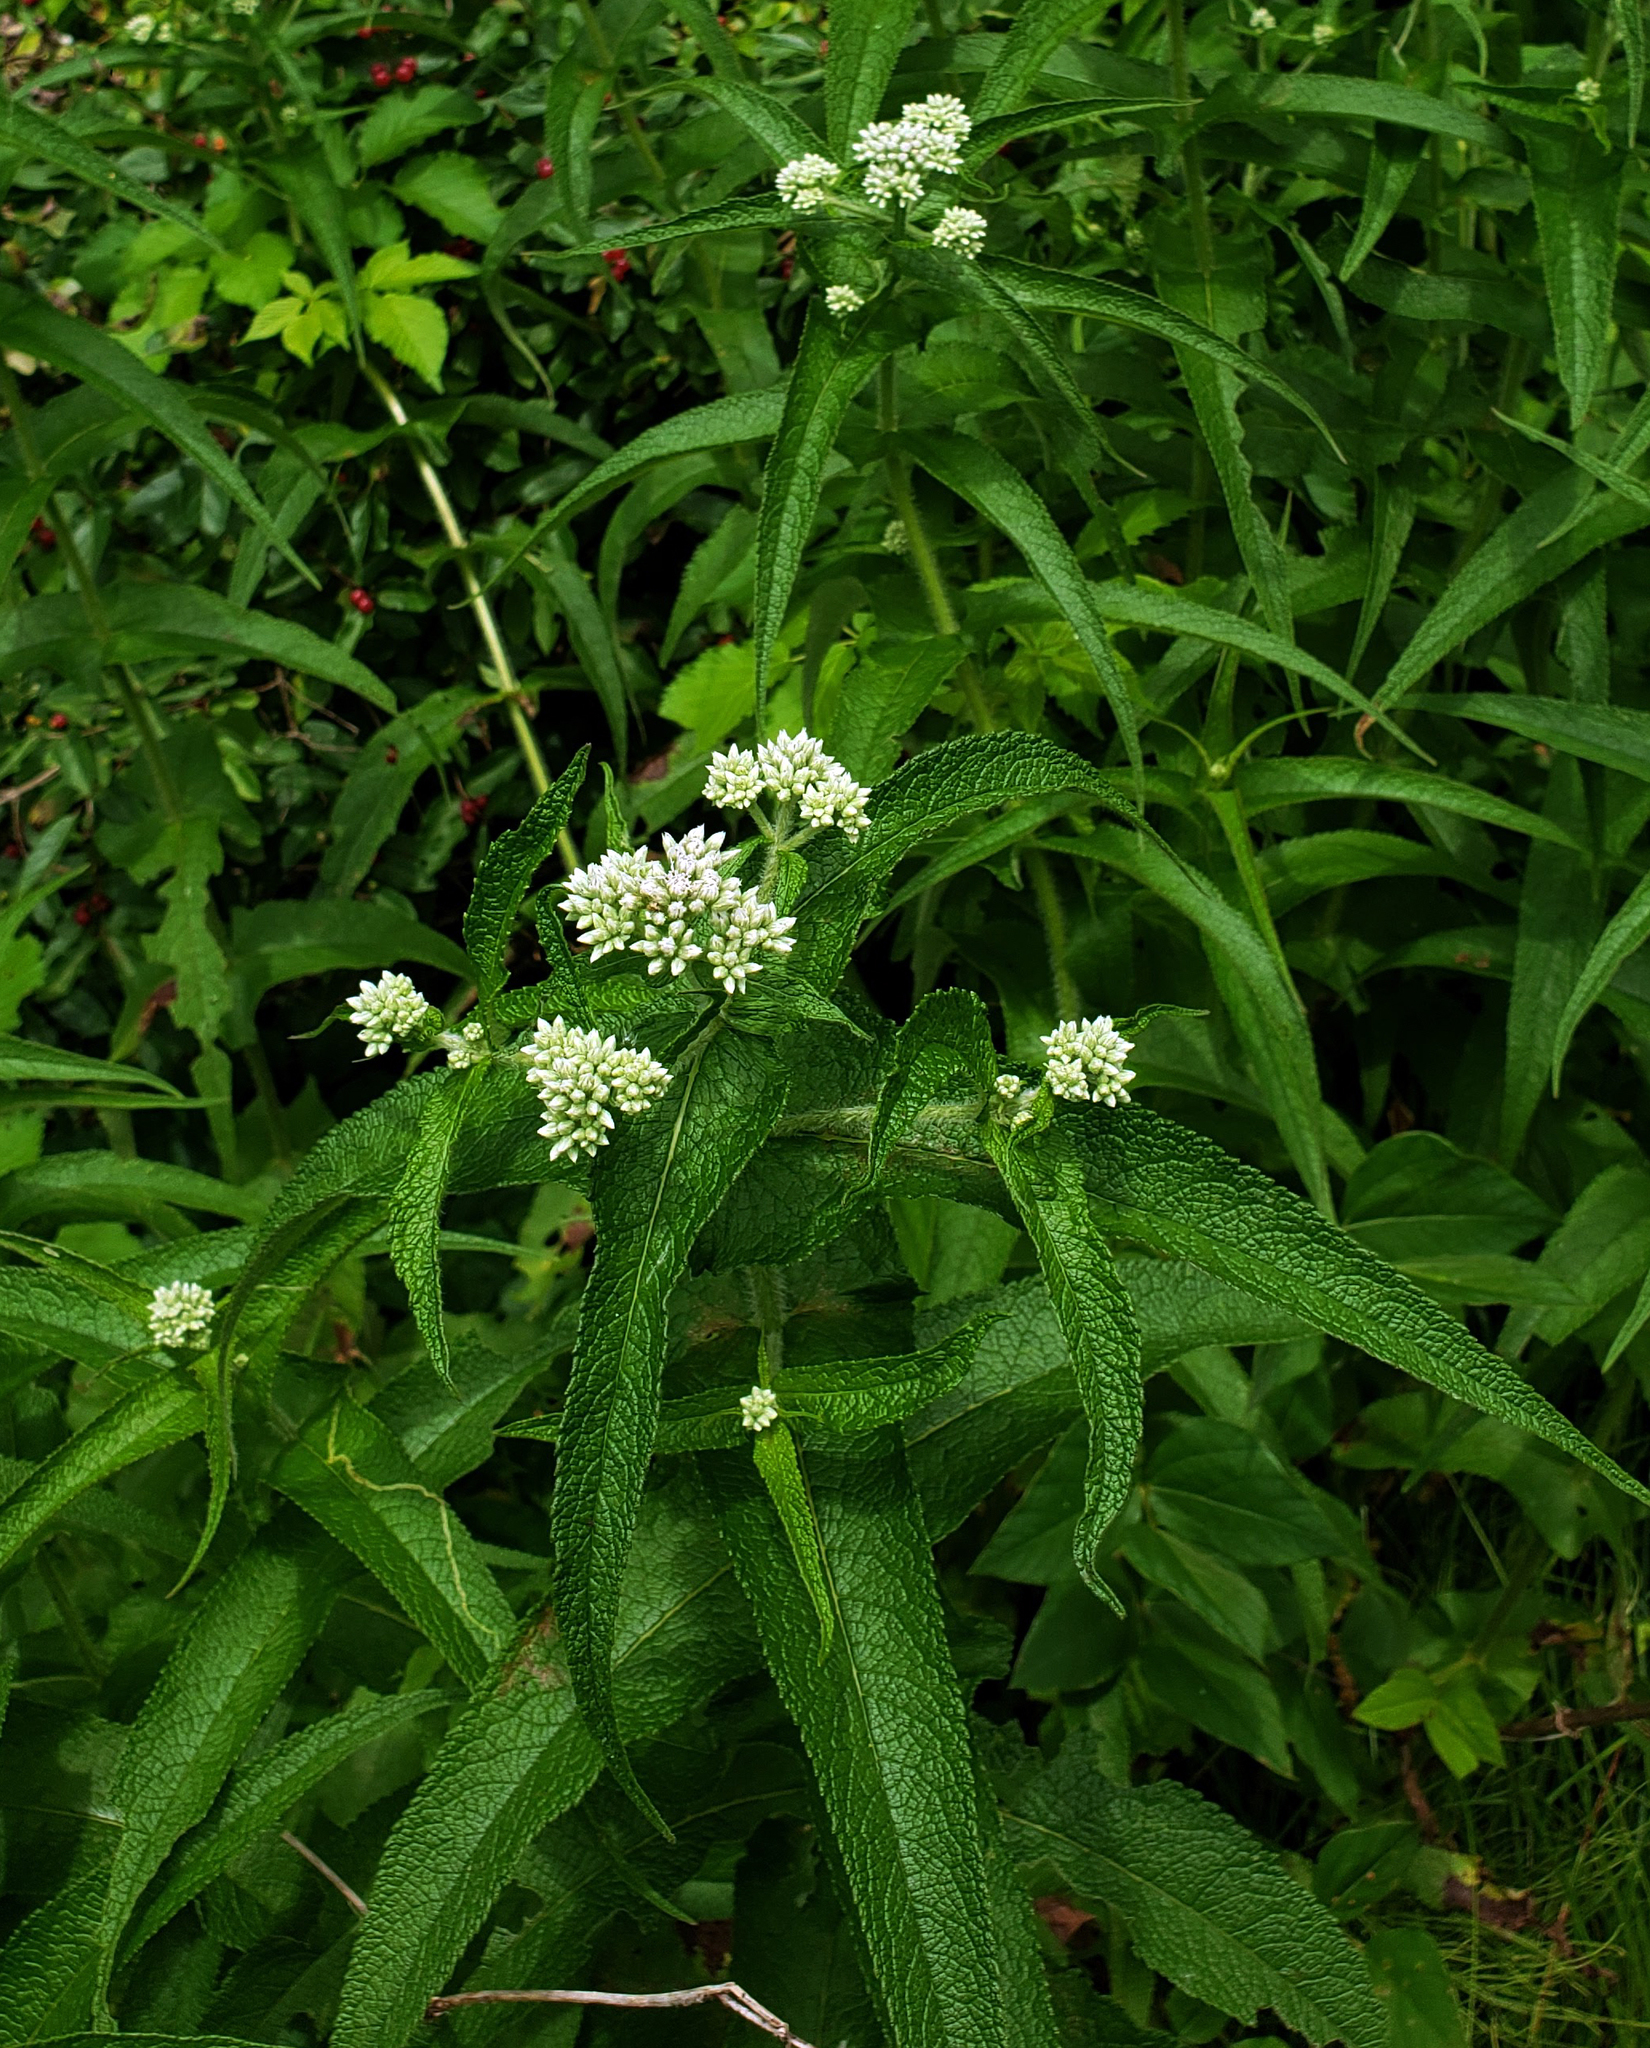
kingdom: Plantae
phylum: Tracheophyta
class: Magnoliopsida
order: Asterales
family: Asteraceae
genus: Eupatorium
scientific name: Eupatorium perfoliatum
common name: Boneset
